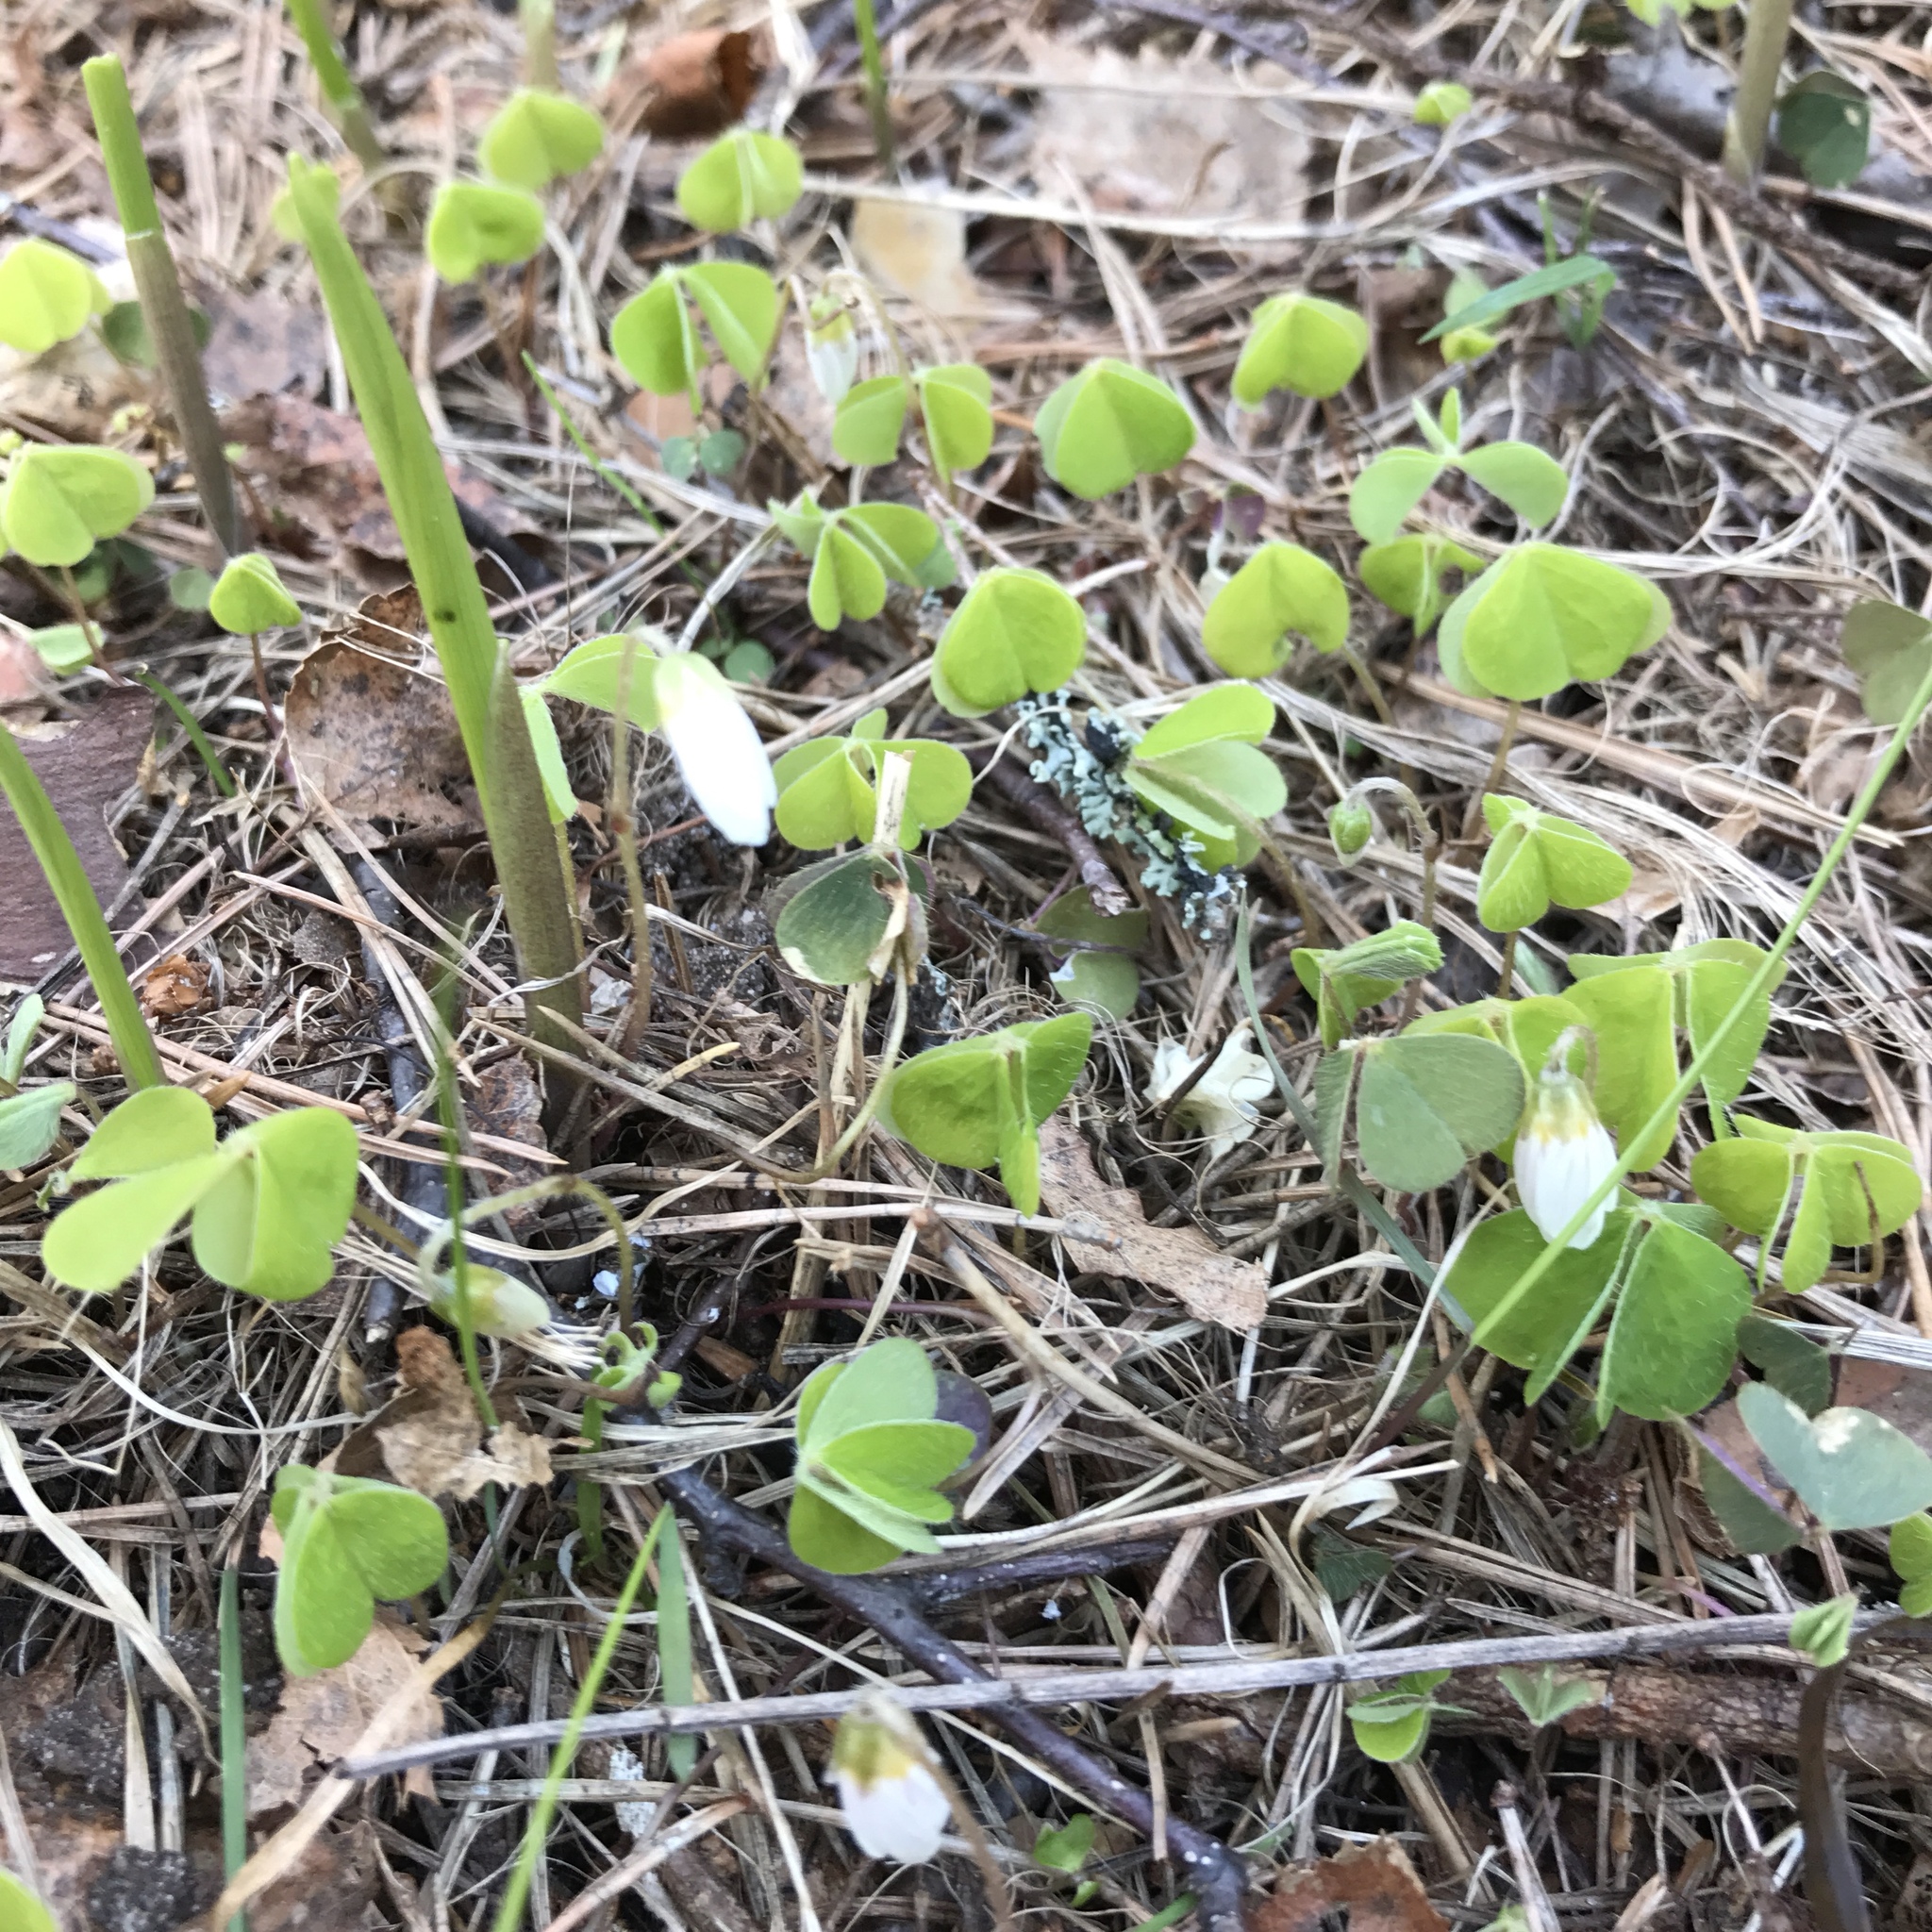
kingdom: Plantae
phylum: Tracheophyta
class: Magnoliopsida
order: Oxalidales
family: Oxalidaceae
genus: Oxalis
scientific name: Oxalis acetosella
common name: Wood-sorrel
